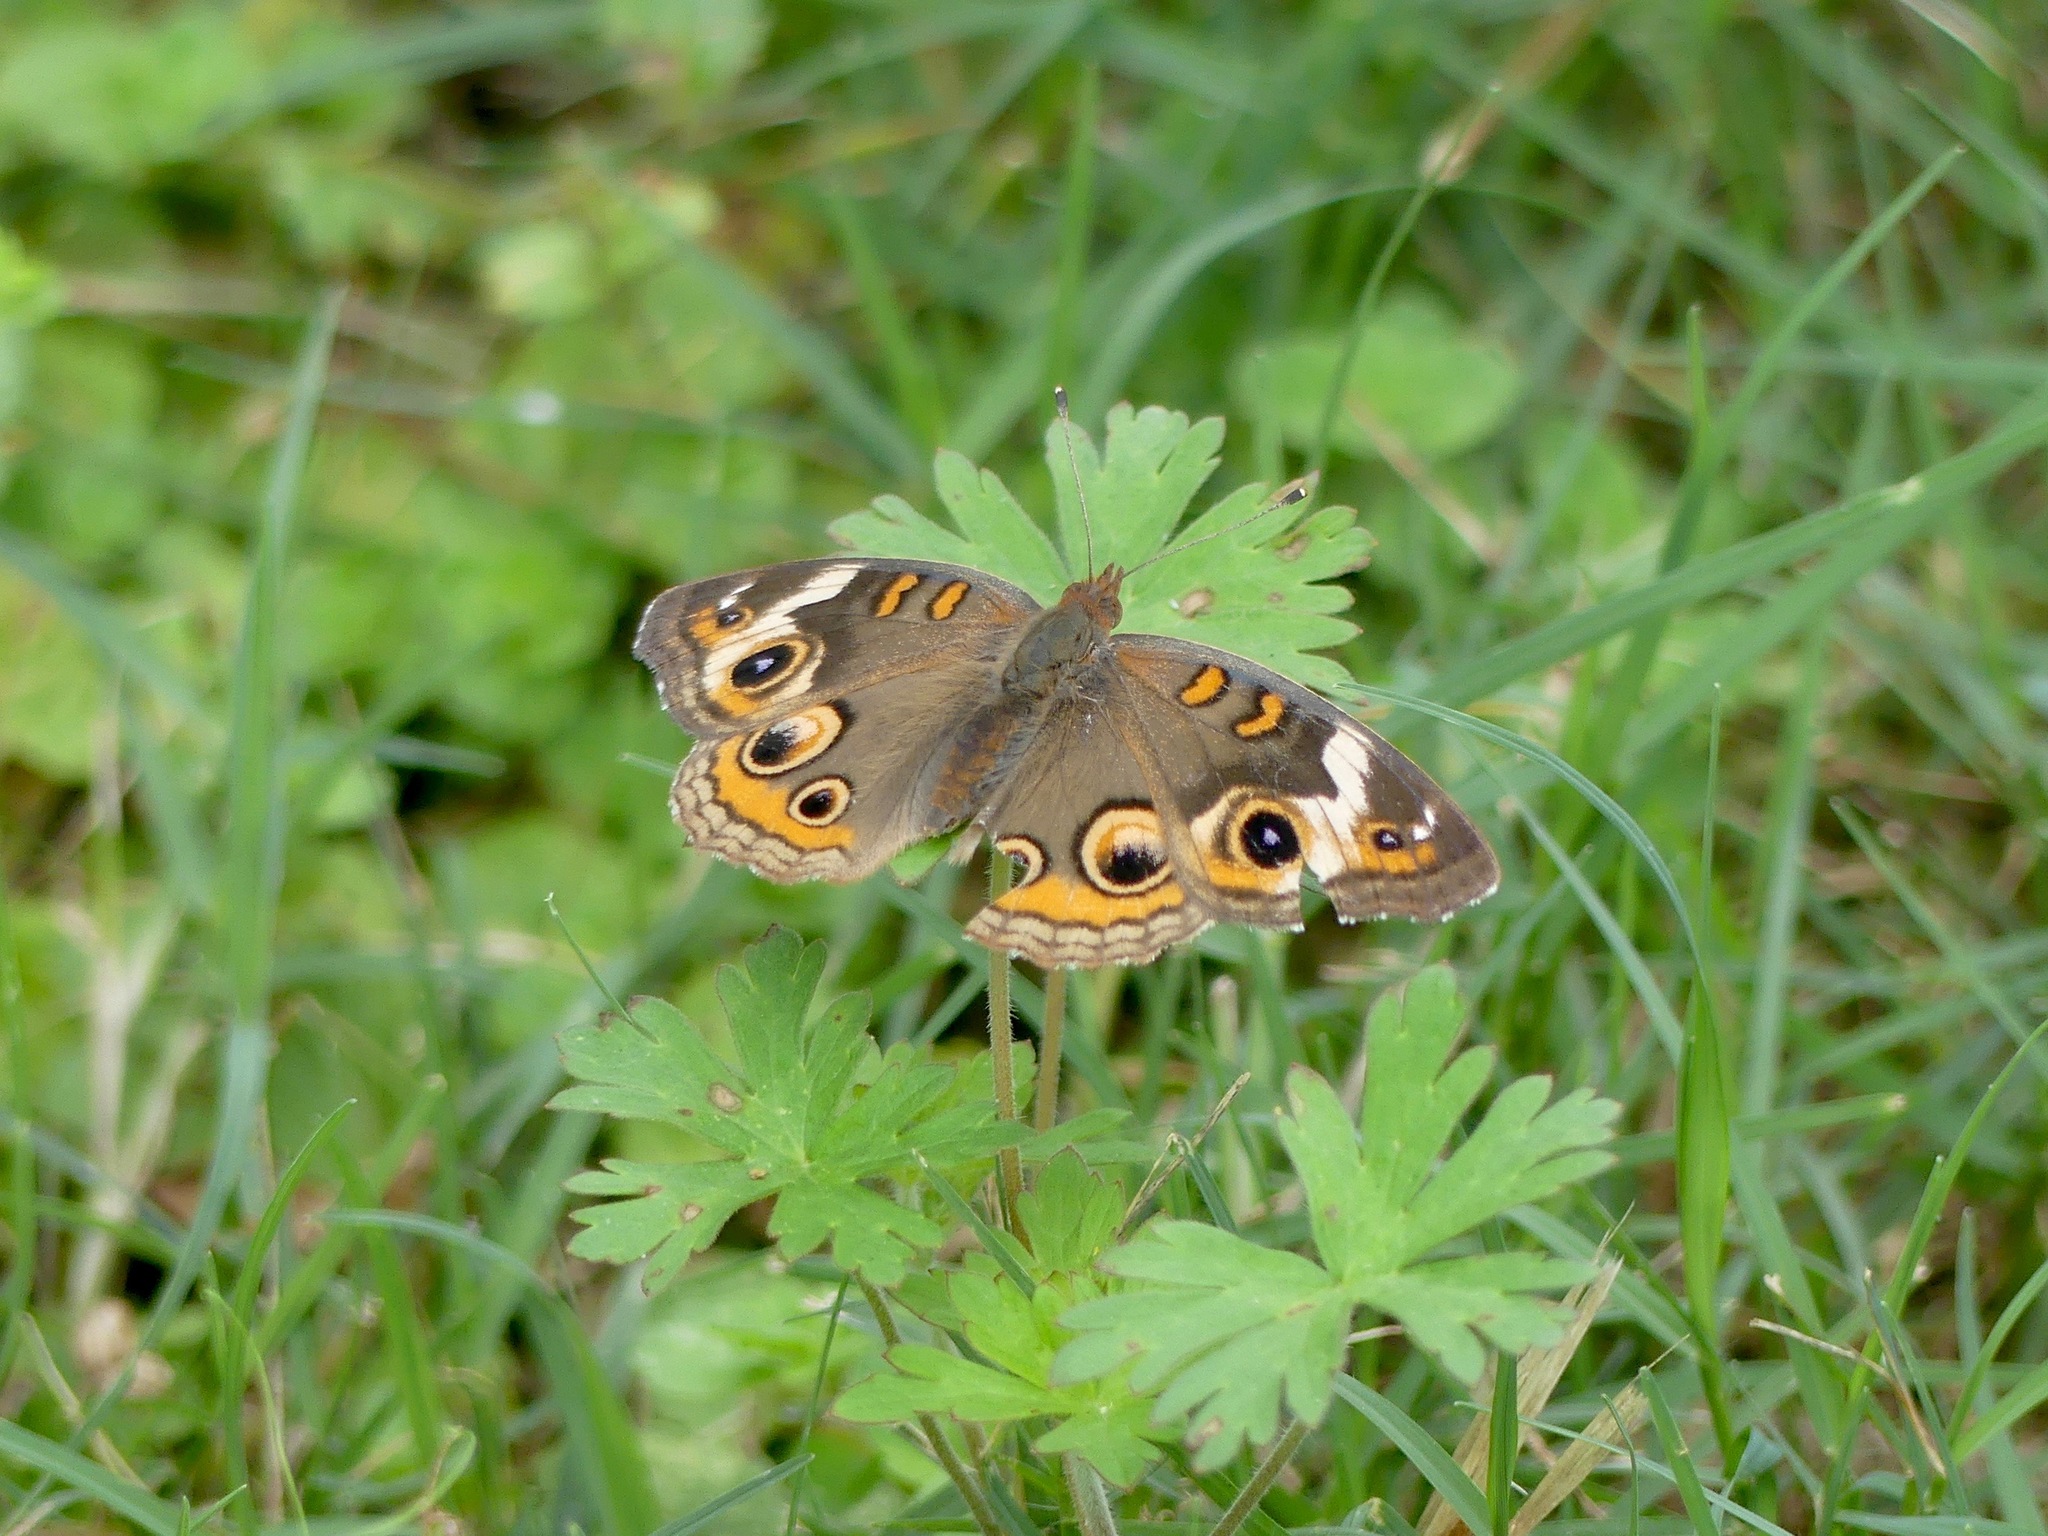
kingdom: Animalia
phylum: Arthropoda
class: Insecta
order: Lepidoptera
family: Nymphalidae
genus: Junonia
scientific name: Junonia coenia
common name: Common buckeye
